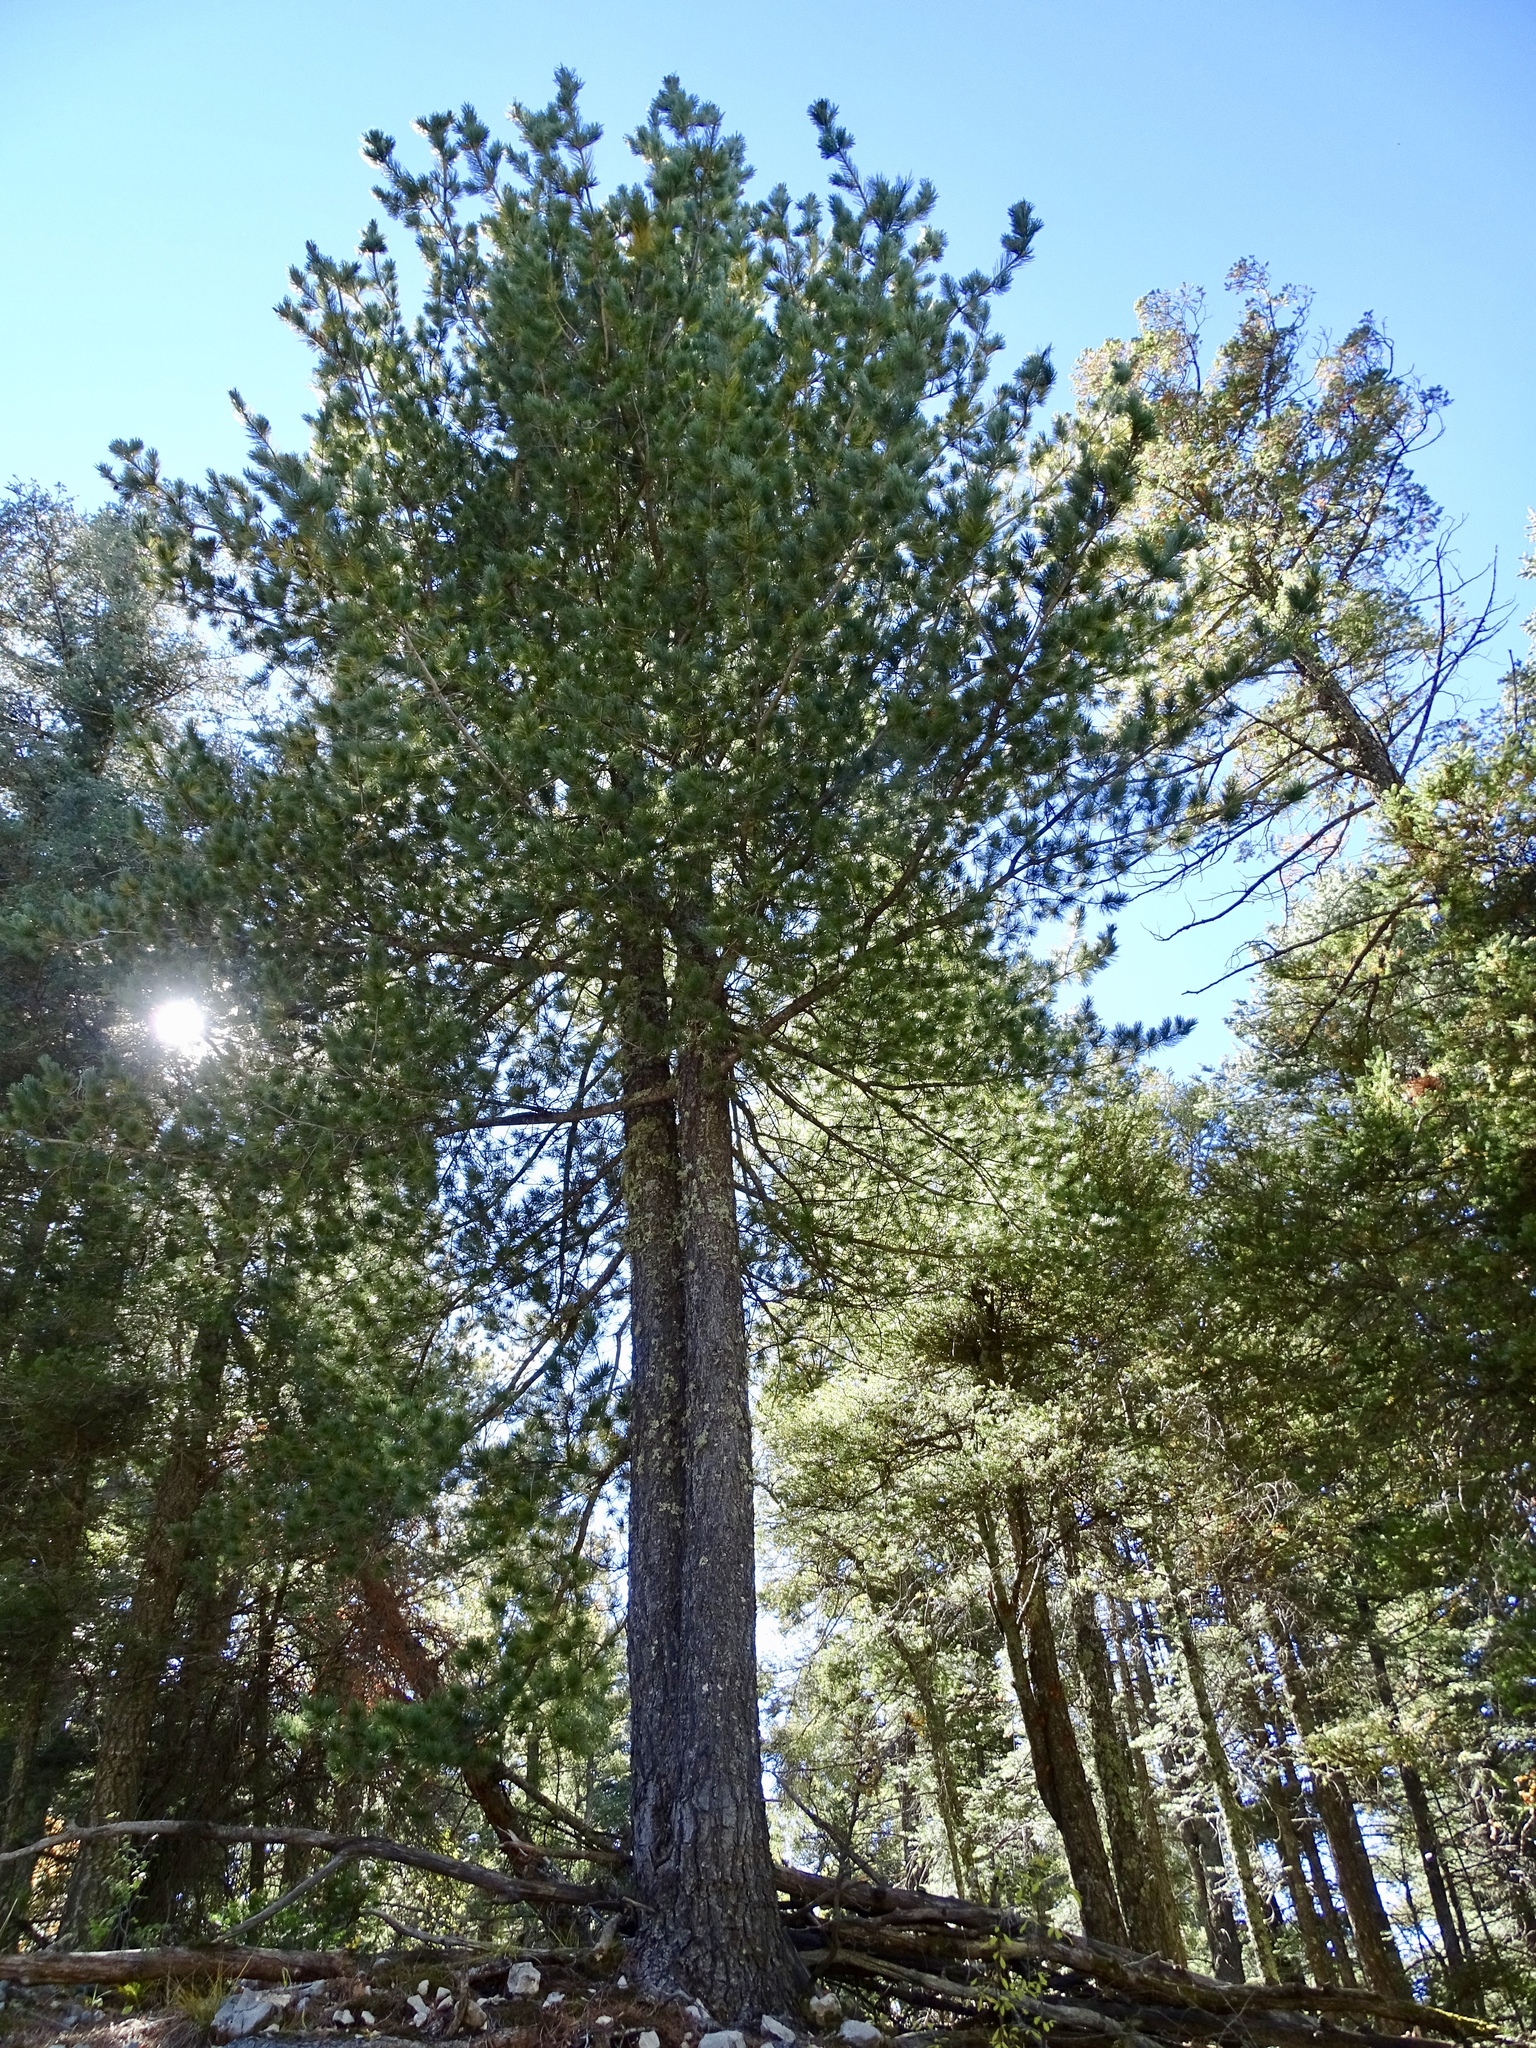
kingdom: Plantae
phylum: Tracheophyta
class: Pinopsida
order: Pinales
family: Pinaceae
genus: Pinus
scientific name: Pinus strobiformis
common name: Southwestern white pine
